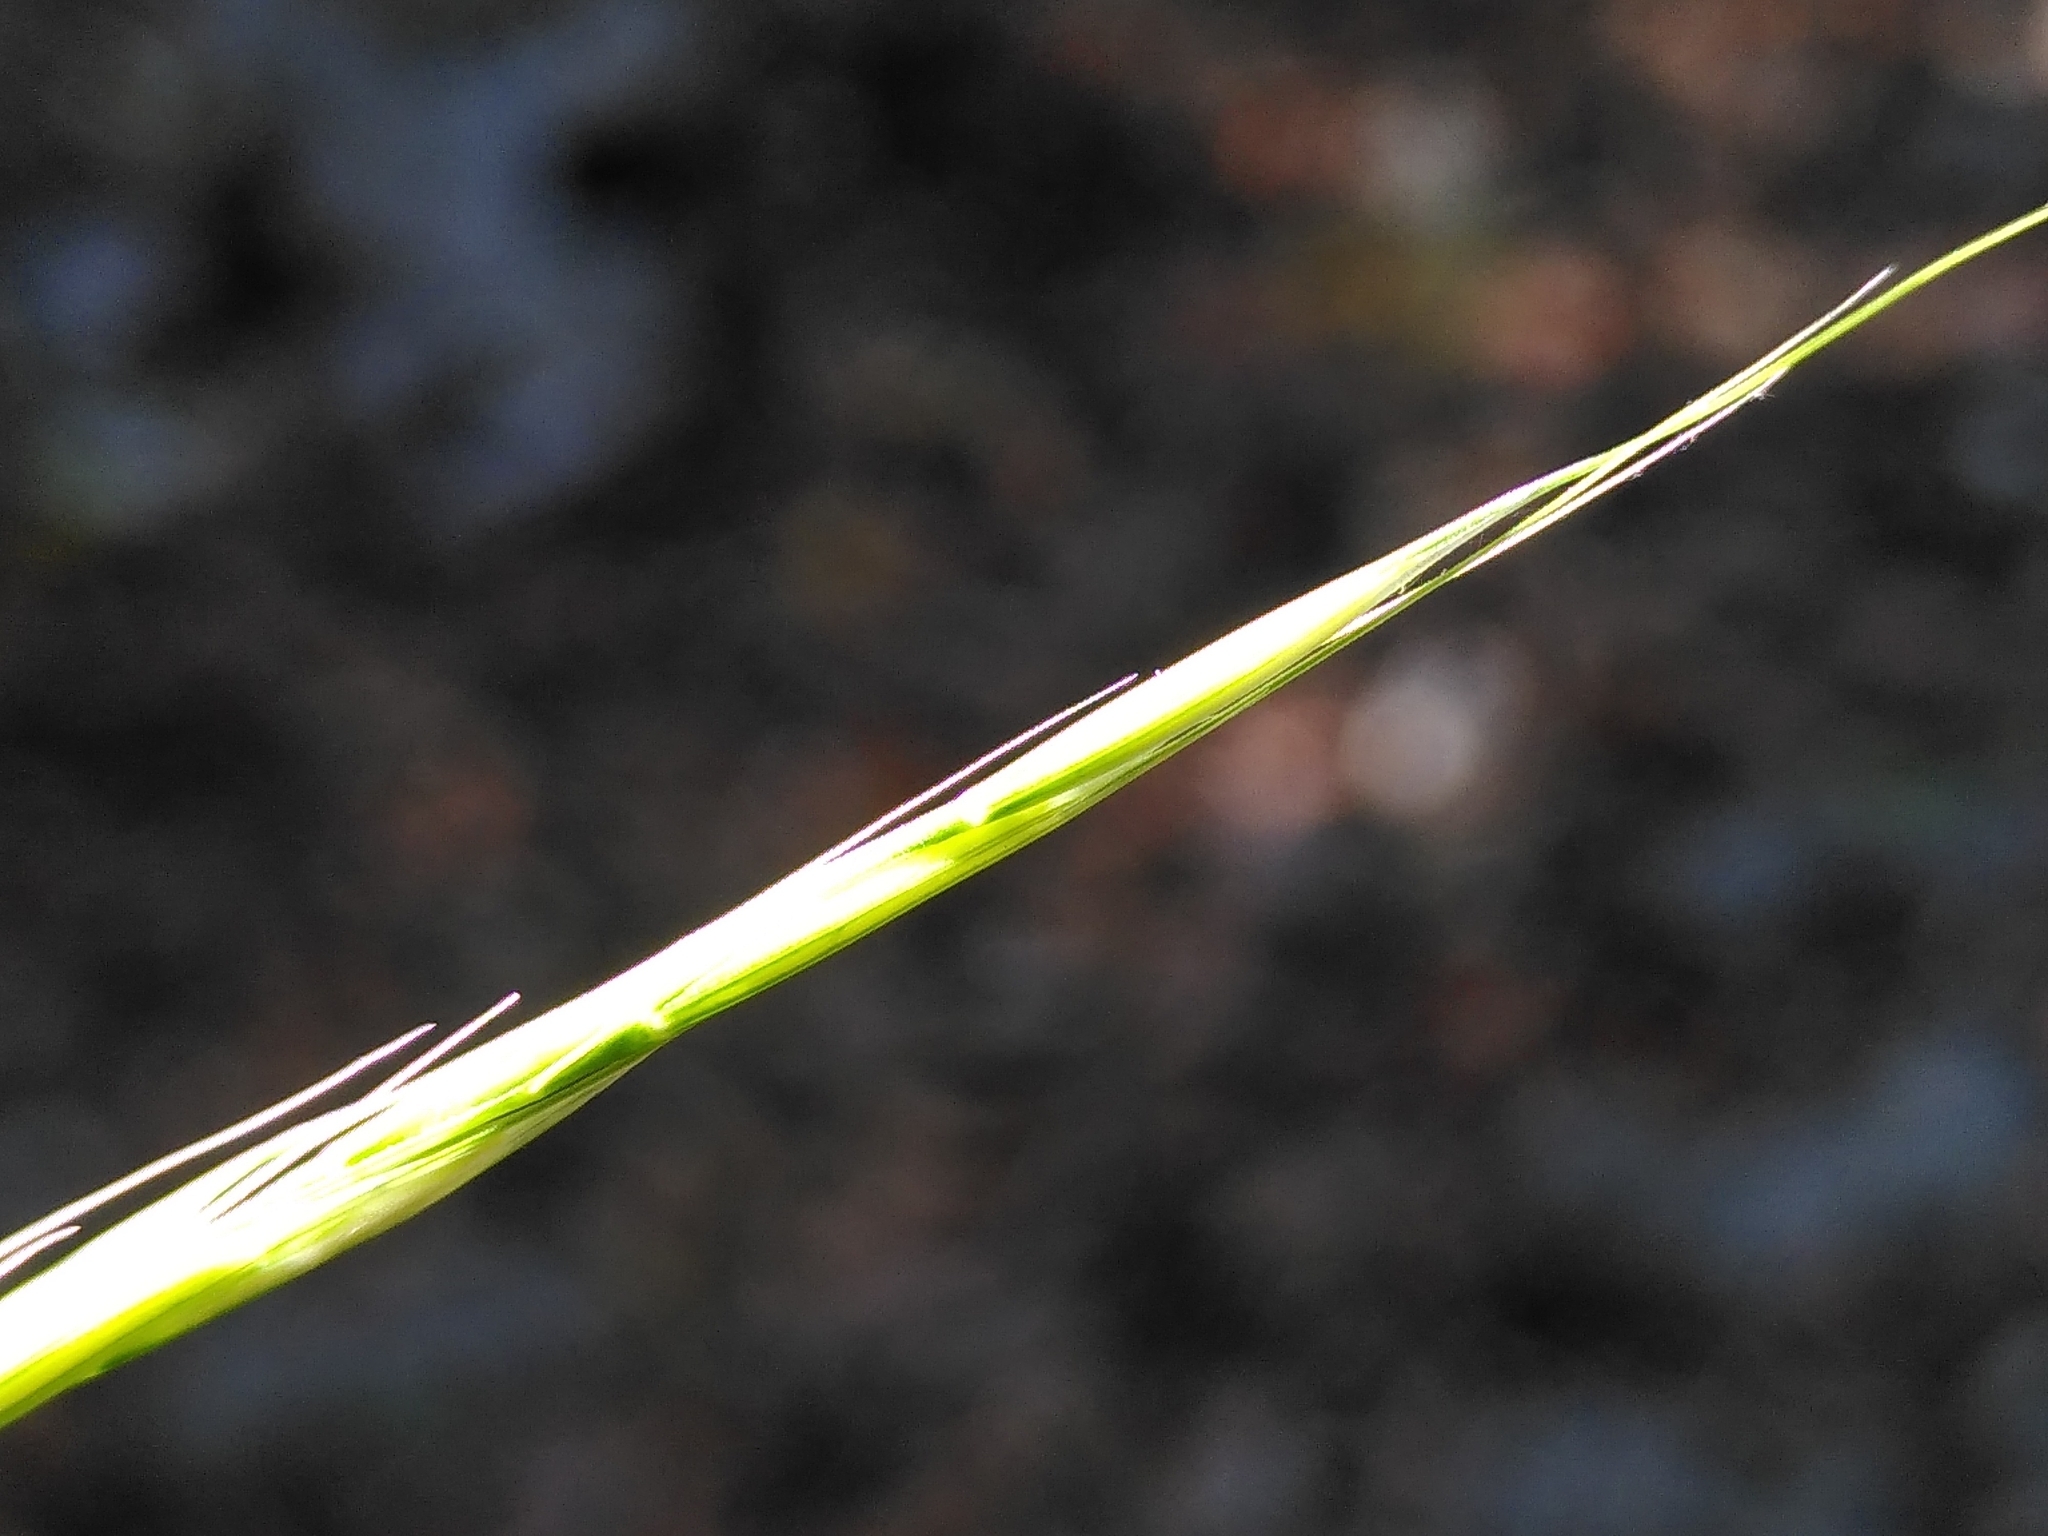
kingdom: Plantae
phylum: Tracheophyta
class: Liliopsida
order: Poales
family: Poaceae
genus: Achnatherum
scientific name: Achnatherum bromoides
